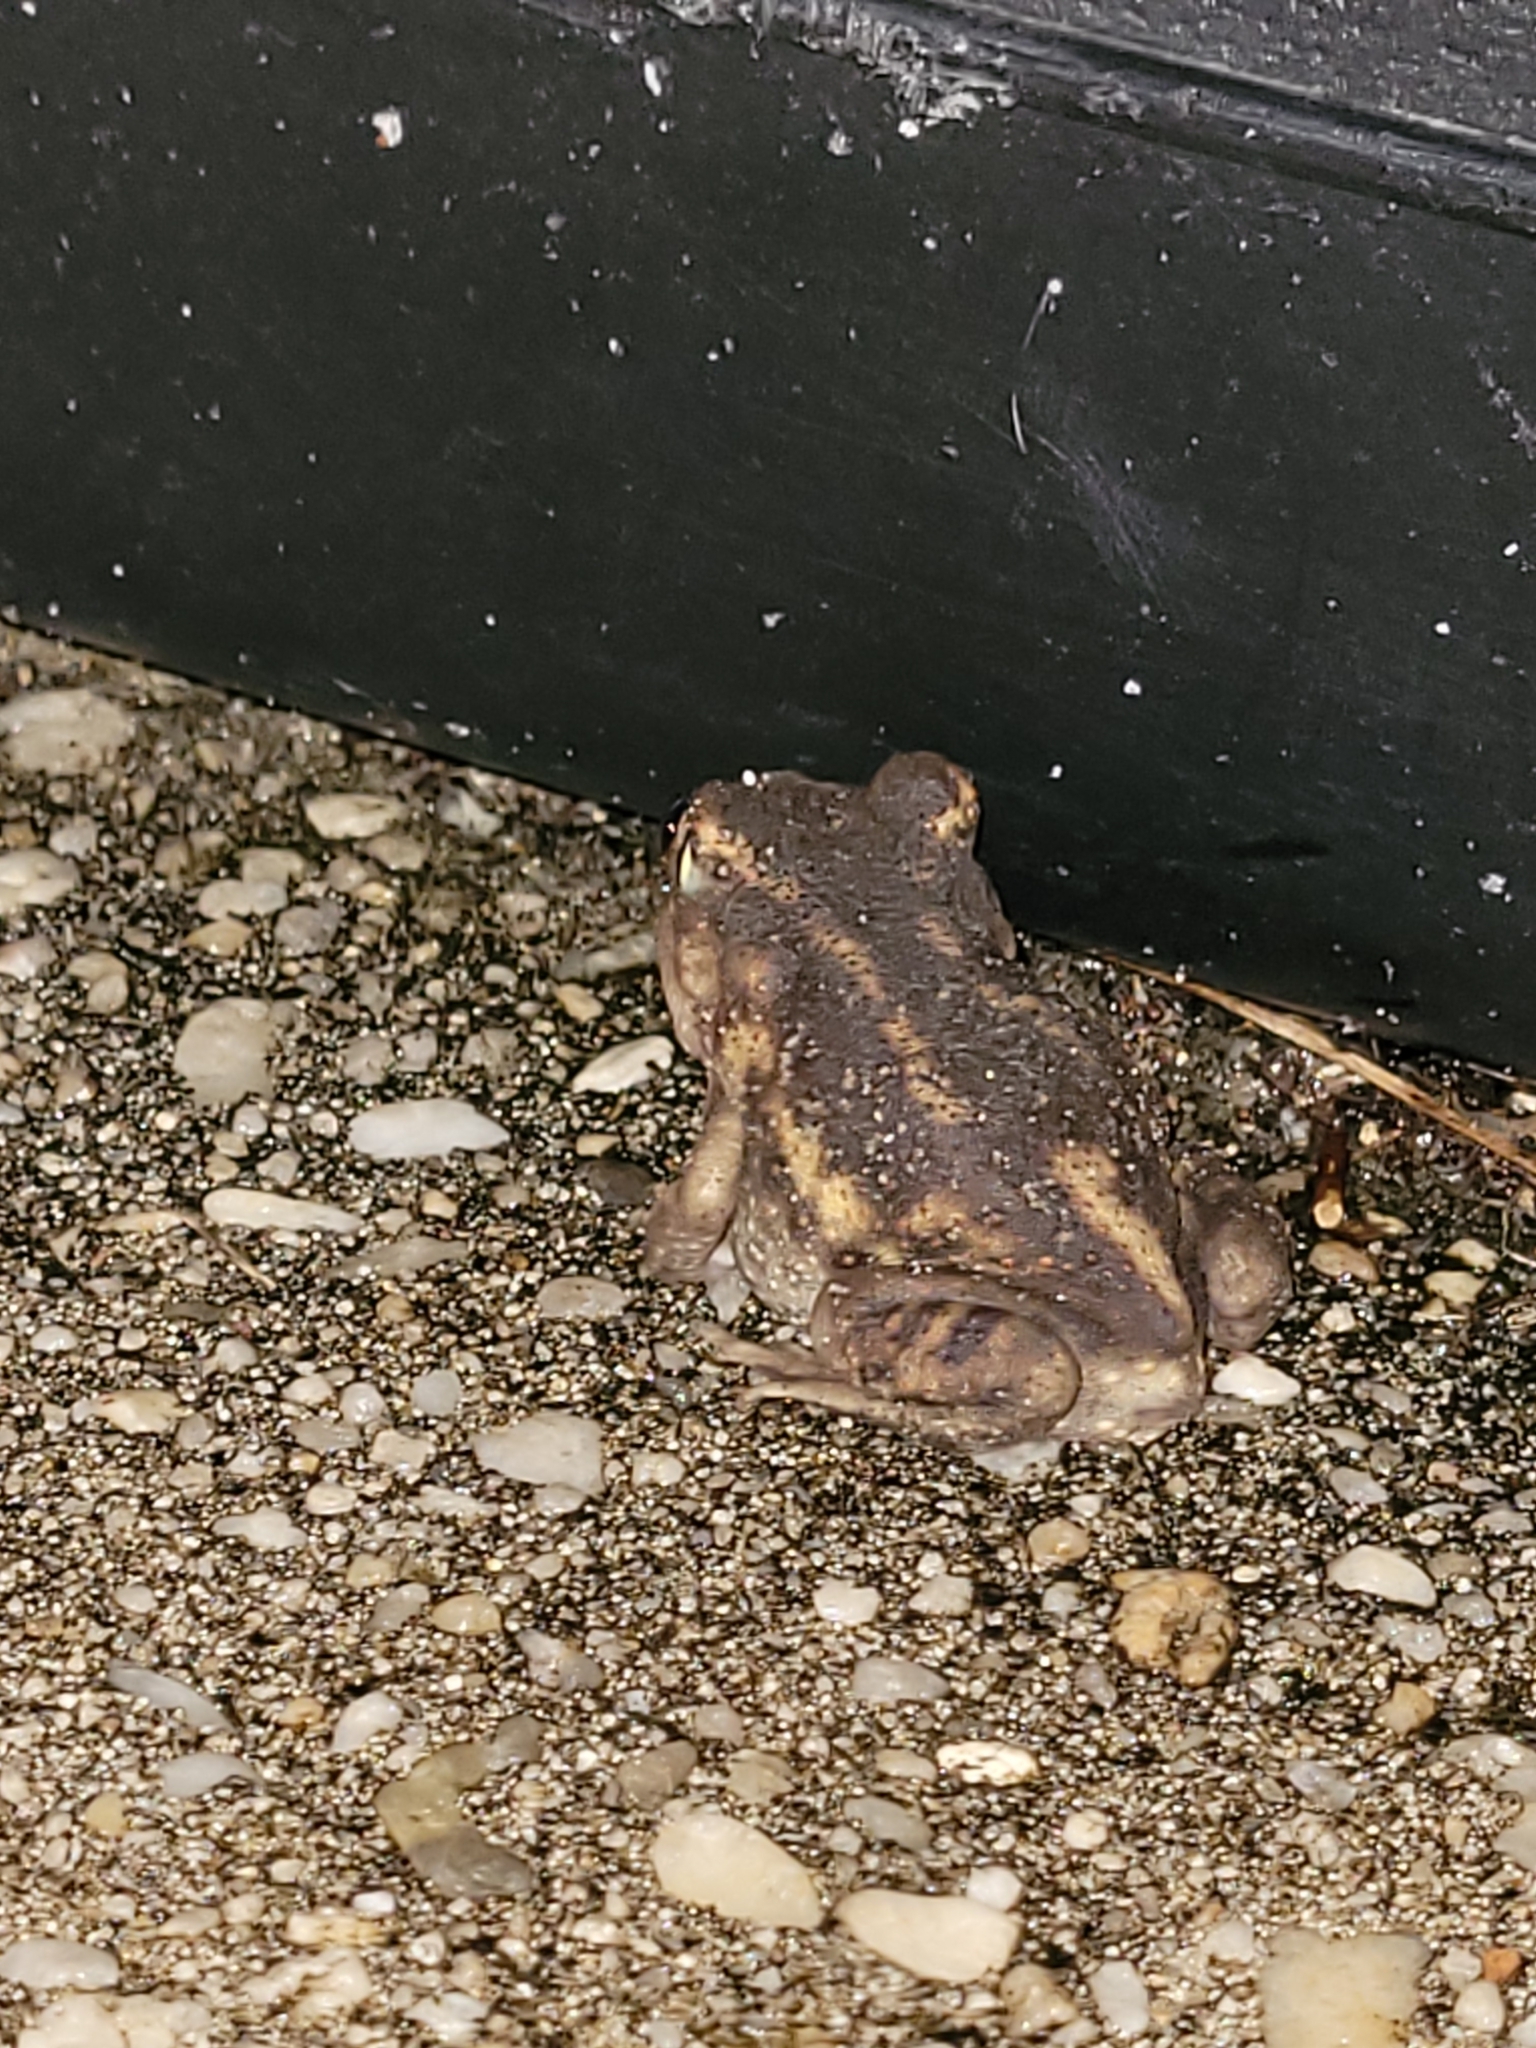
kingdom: Animalia
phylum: Chordata
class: Amphibia
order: Anura
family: Scaphiopodidae
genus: Scaphiopus
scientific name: Scaphiopus holbrookii
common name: Eastern spadefoot toad
